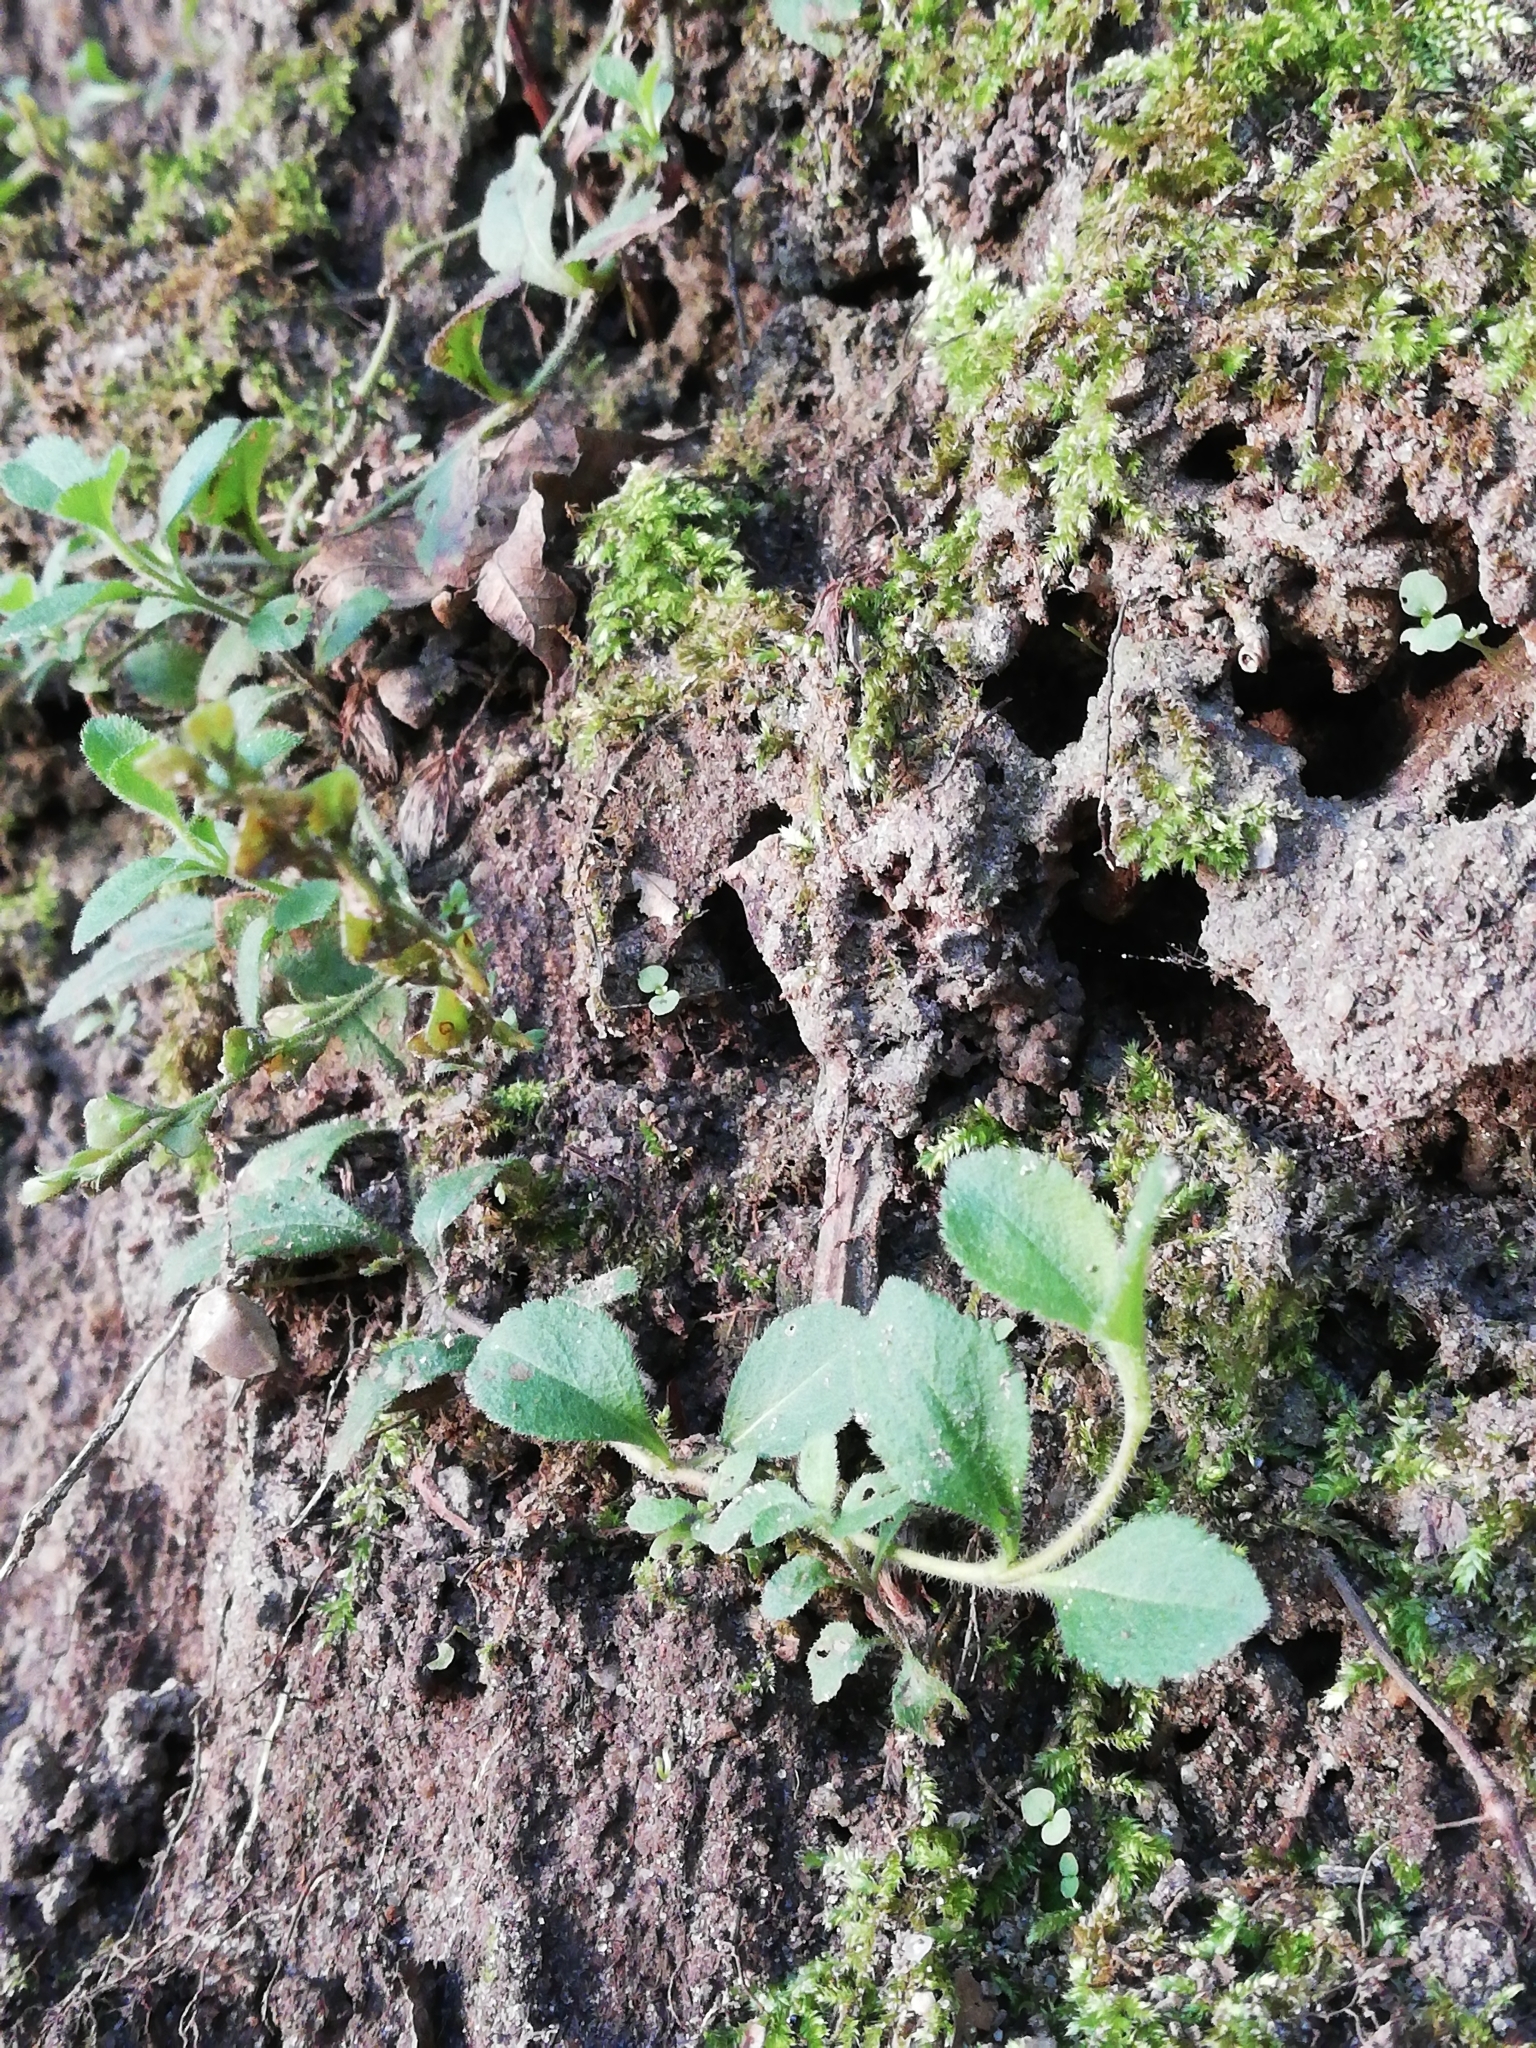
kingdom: Plantae
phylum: Tracheophyta
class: Magnoliopsida
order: Lamiales
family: Plantaginaceae
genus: Veronica
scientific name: Veronica officinalis
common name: Common speedwell
